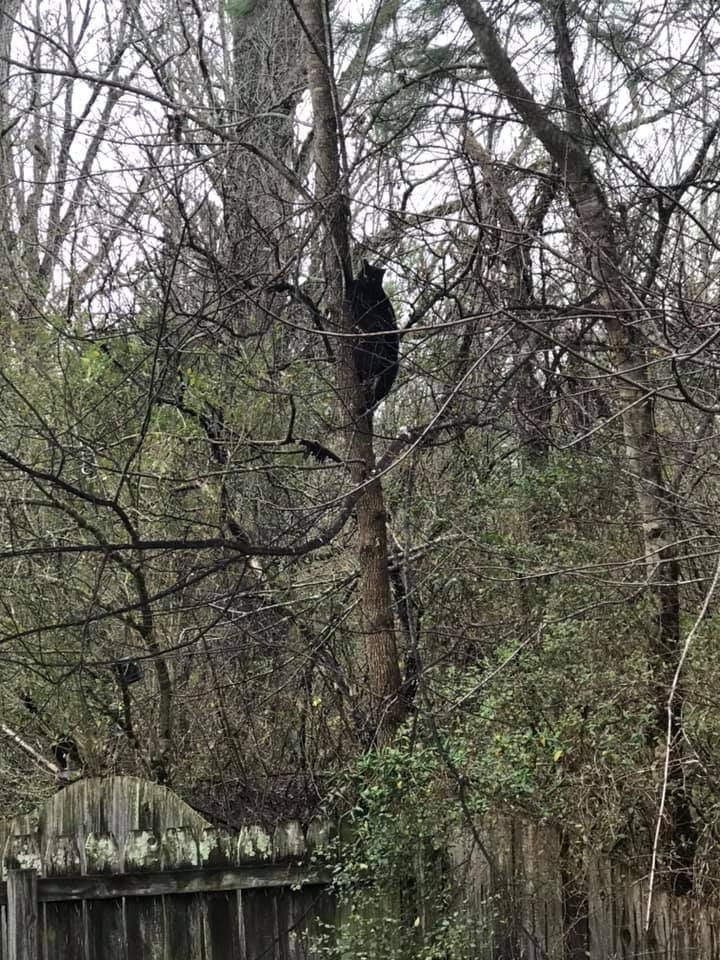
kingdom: Animalia
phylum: Chordata
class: Mammalia
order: Carnivora
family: Felidae
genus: Felis
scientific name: Felis catus
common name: Domestic cat
